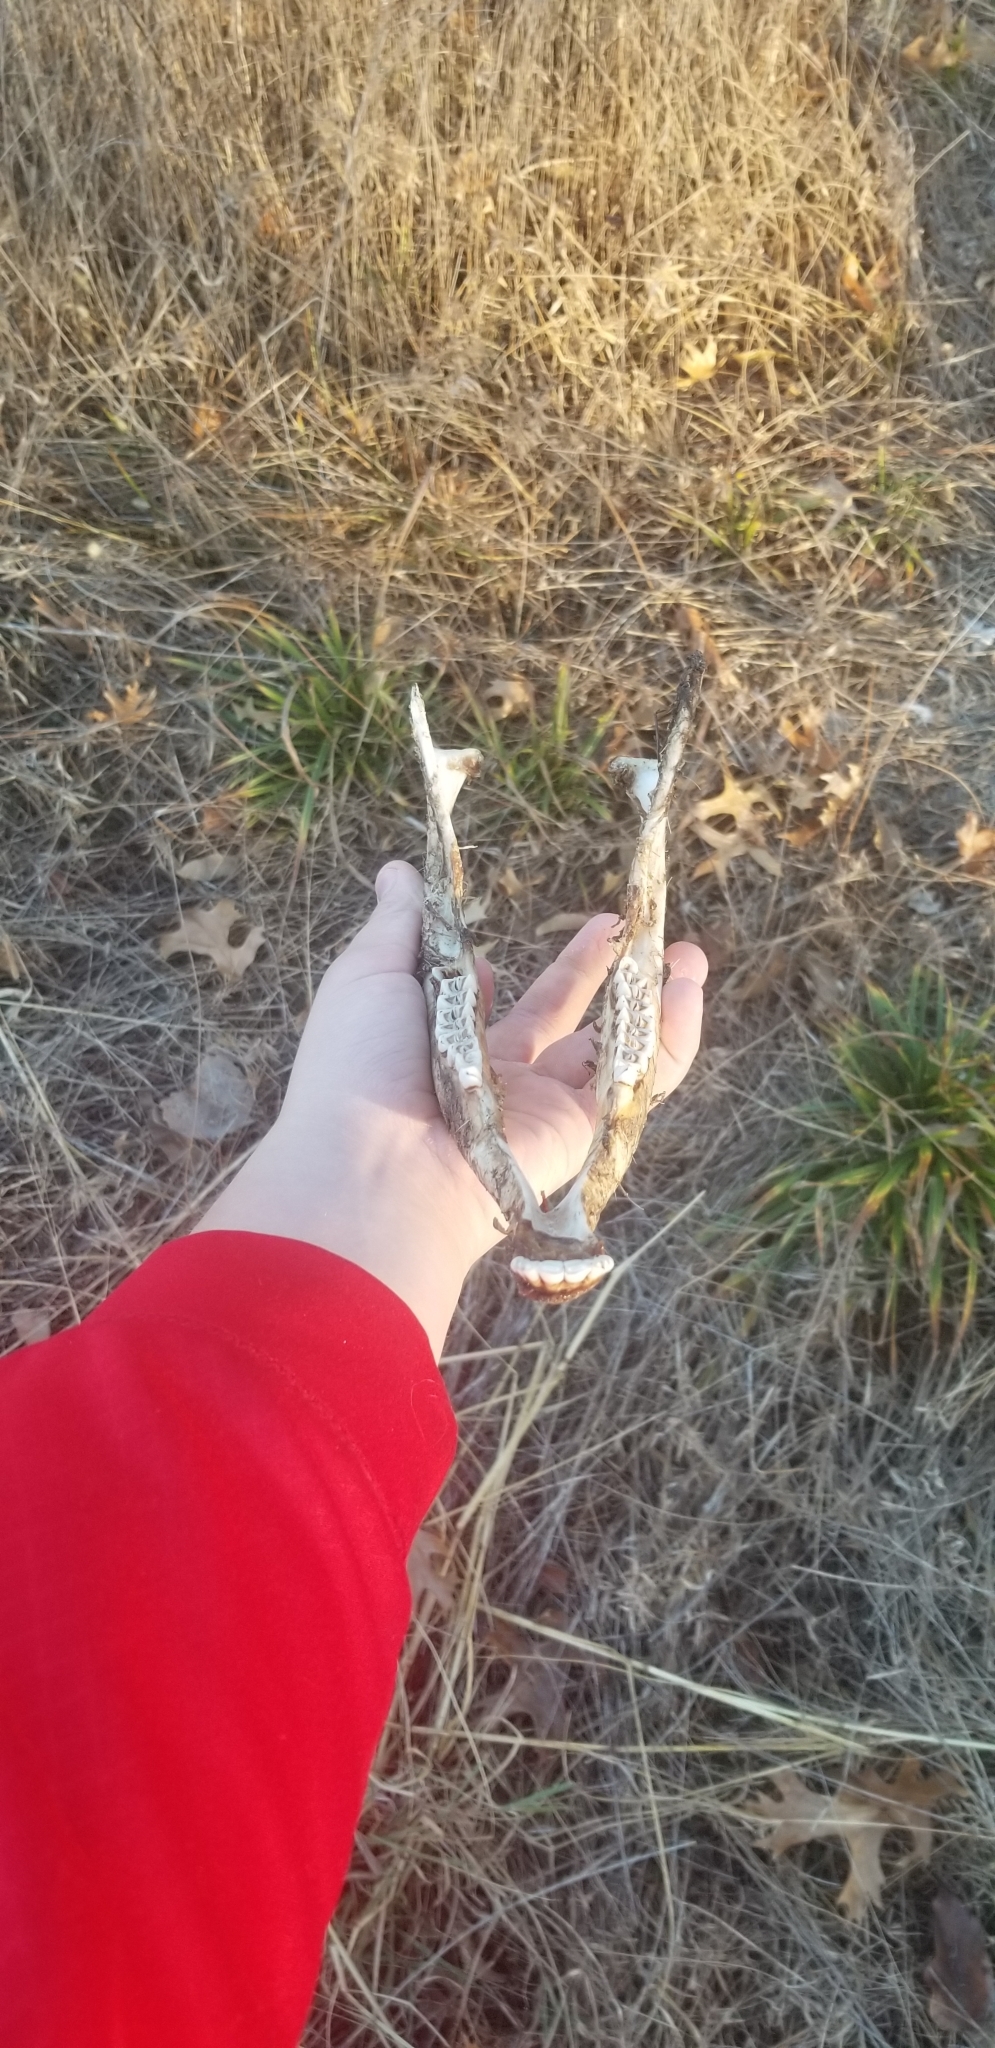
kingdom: Animalia
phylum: Chordata
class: Mammalia
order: Artiodactyla
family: Cervidae
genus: Odocoileus
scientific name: Odocoileus virginianus
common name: White-tailed deer
